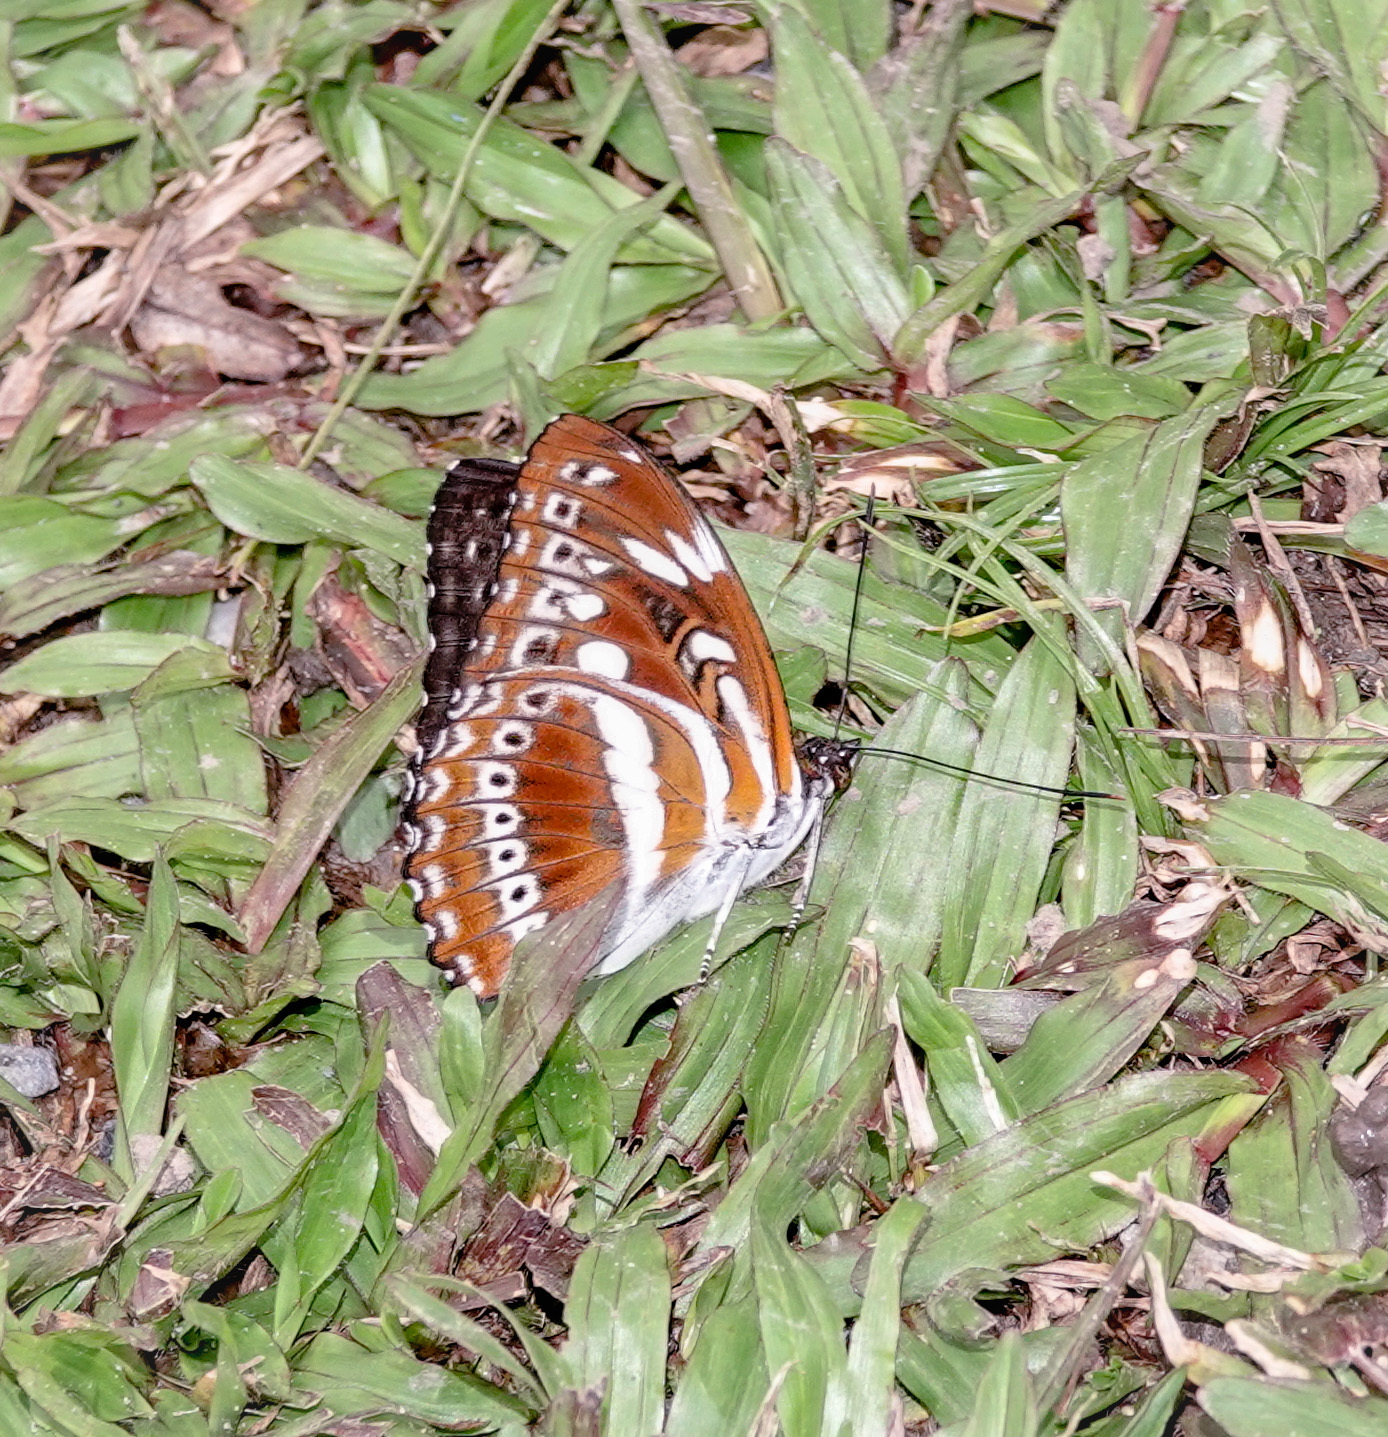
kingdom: Animalia
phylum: Arthropoda
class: Insecta
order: Lepidoptera
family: Nymphalidae
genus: Parathyma
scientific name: Parathyma asura
